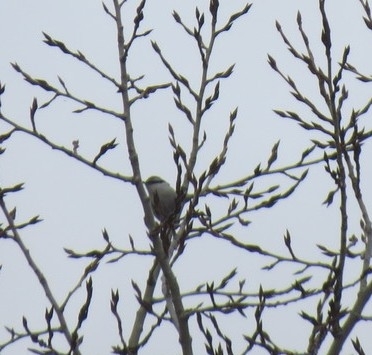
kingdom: Animalia
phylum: Chordata
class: Aves
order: Passeriformes
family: Sittidae
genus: Sitta
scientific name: Sitta europaea
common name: Eurasian nuthatch
